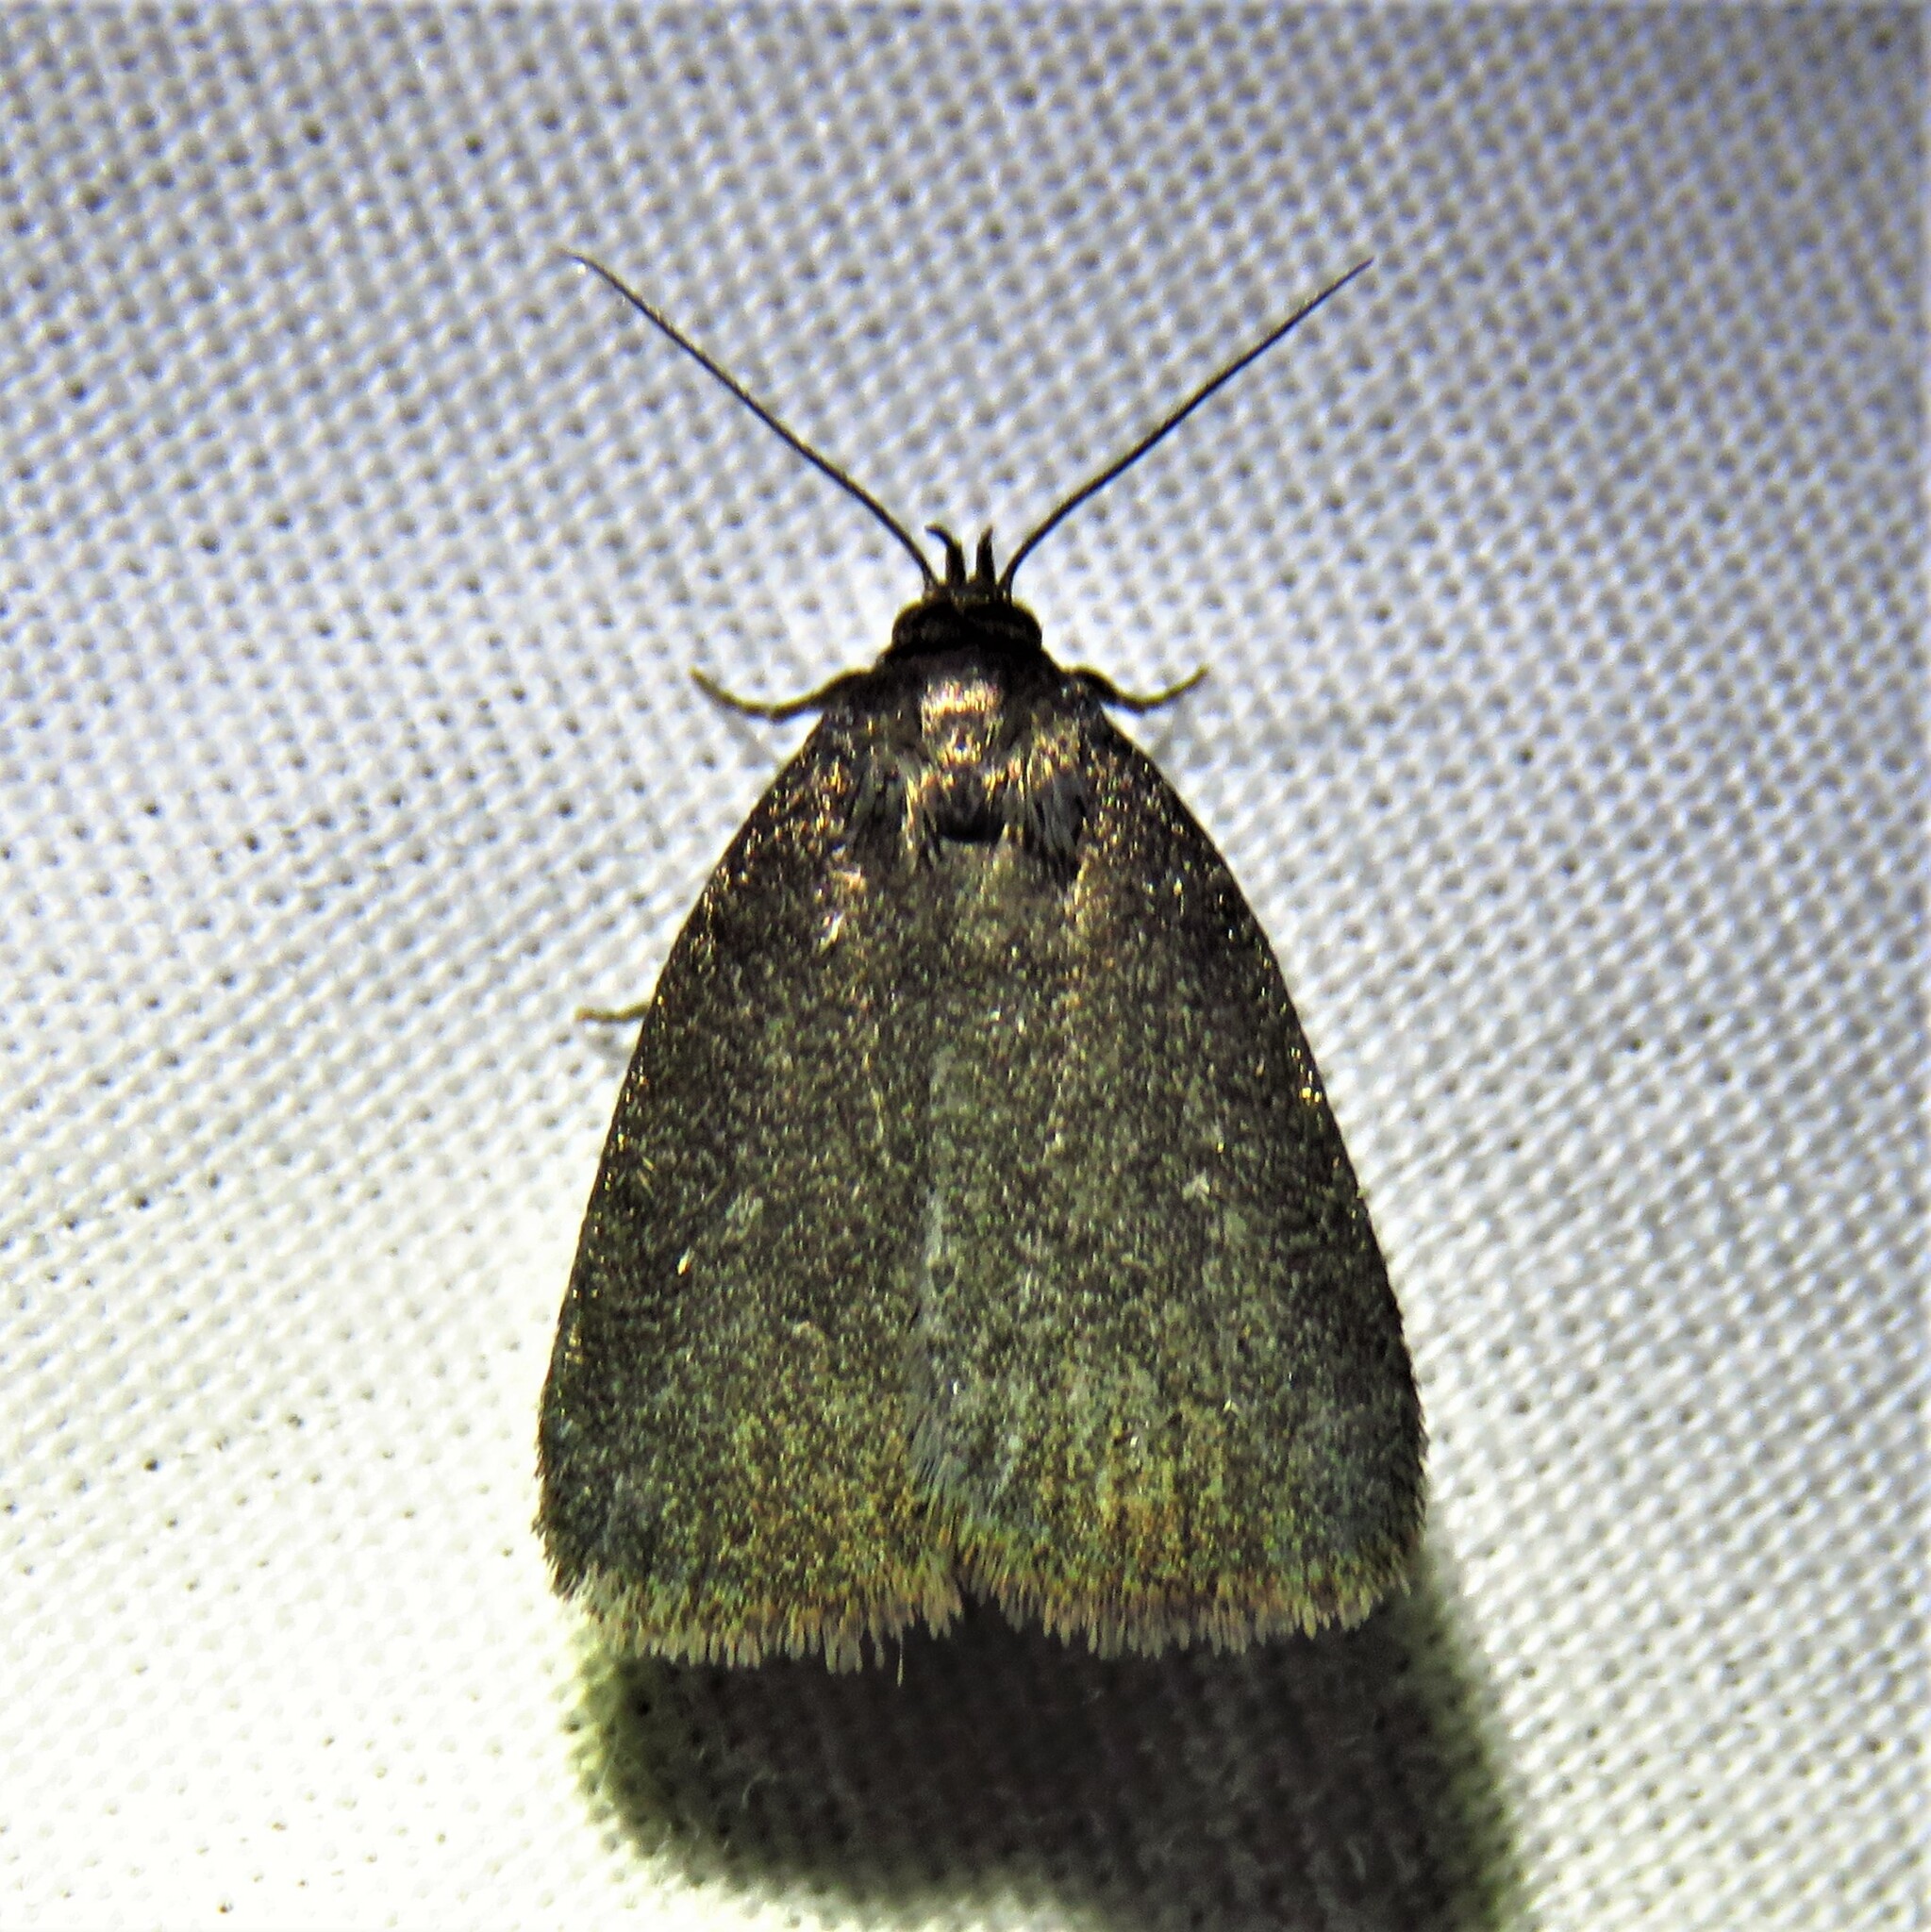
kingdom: Animalia
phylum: Arthropoda
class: Insecta
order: Lepidoptera
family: Erebidae
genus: Idia
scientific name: Idia rotundalis
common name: Rotund idia moth
